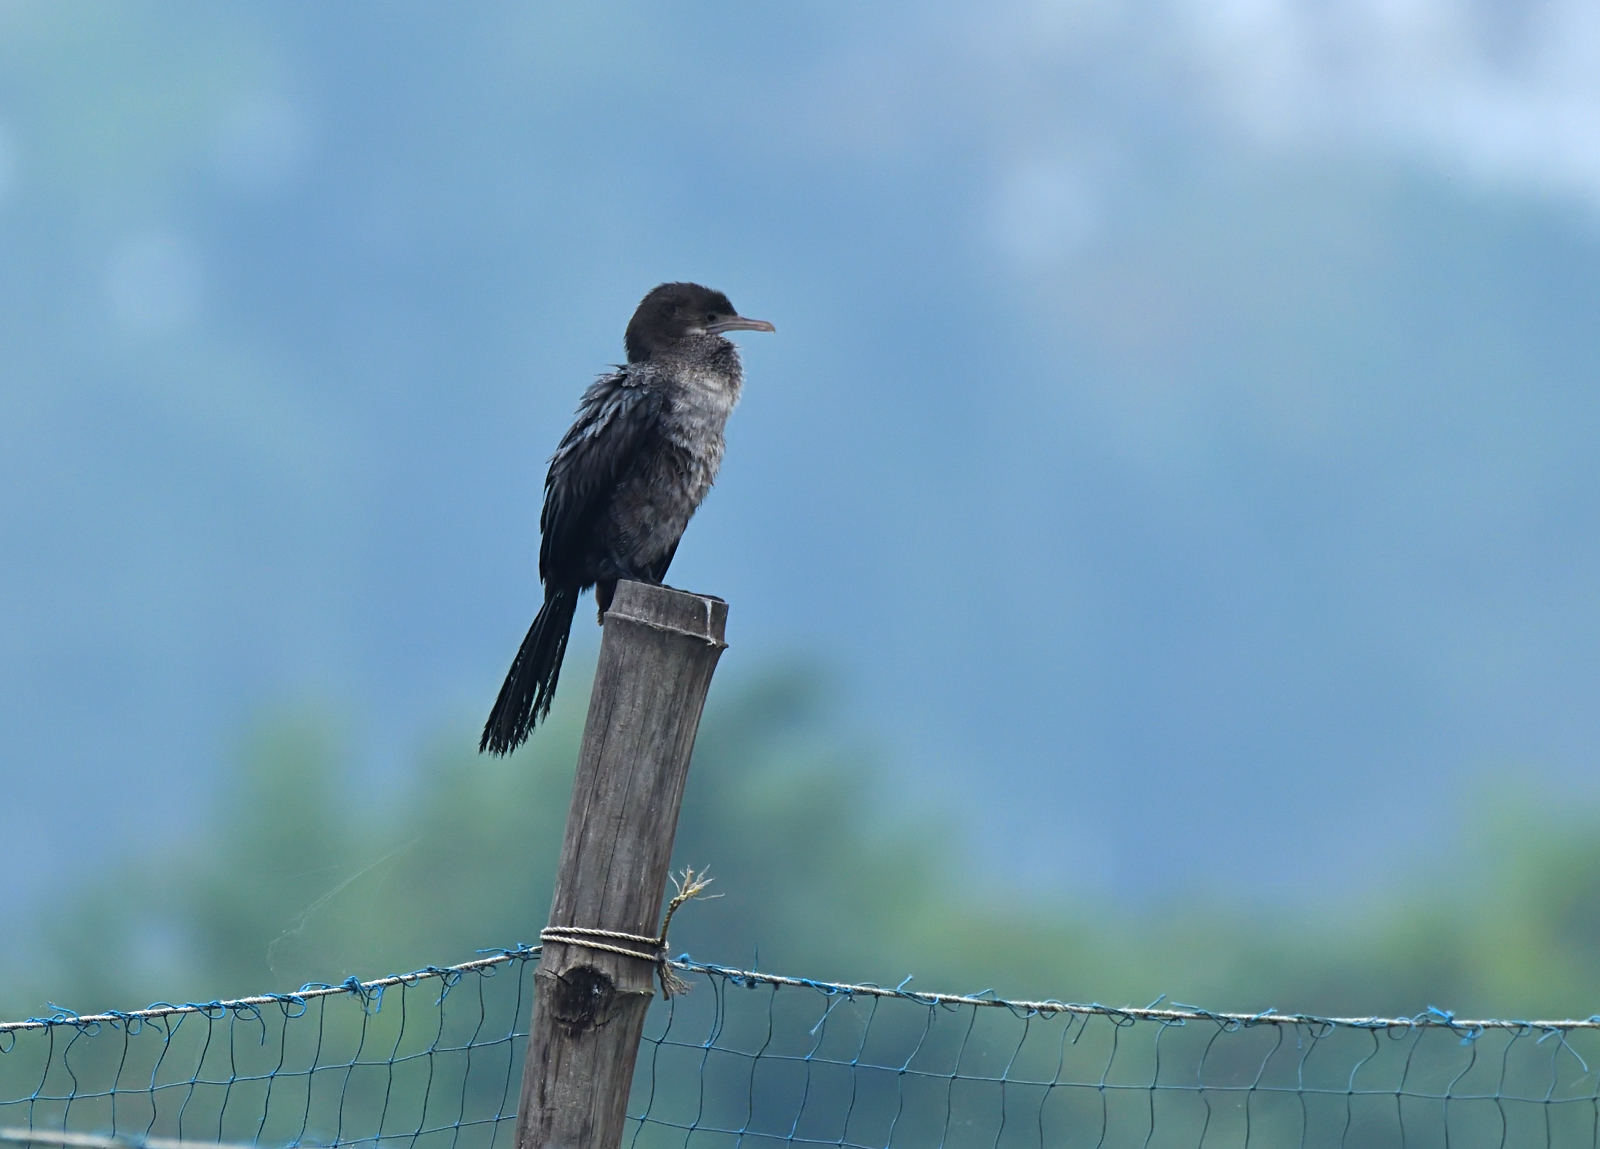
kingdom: Animalia
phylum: Chordata
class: Aves
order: Suliformes
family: Phalacrocoracidae
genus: Microcarbo
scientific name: Microcarbo niger
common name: Little cormorant
